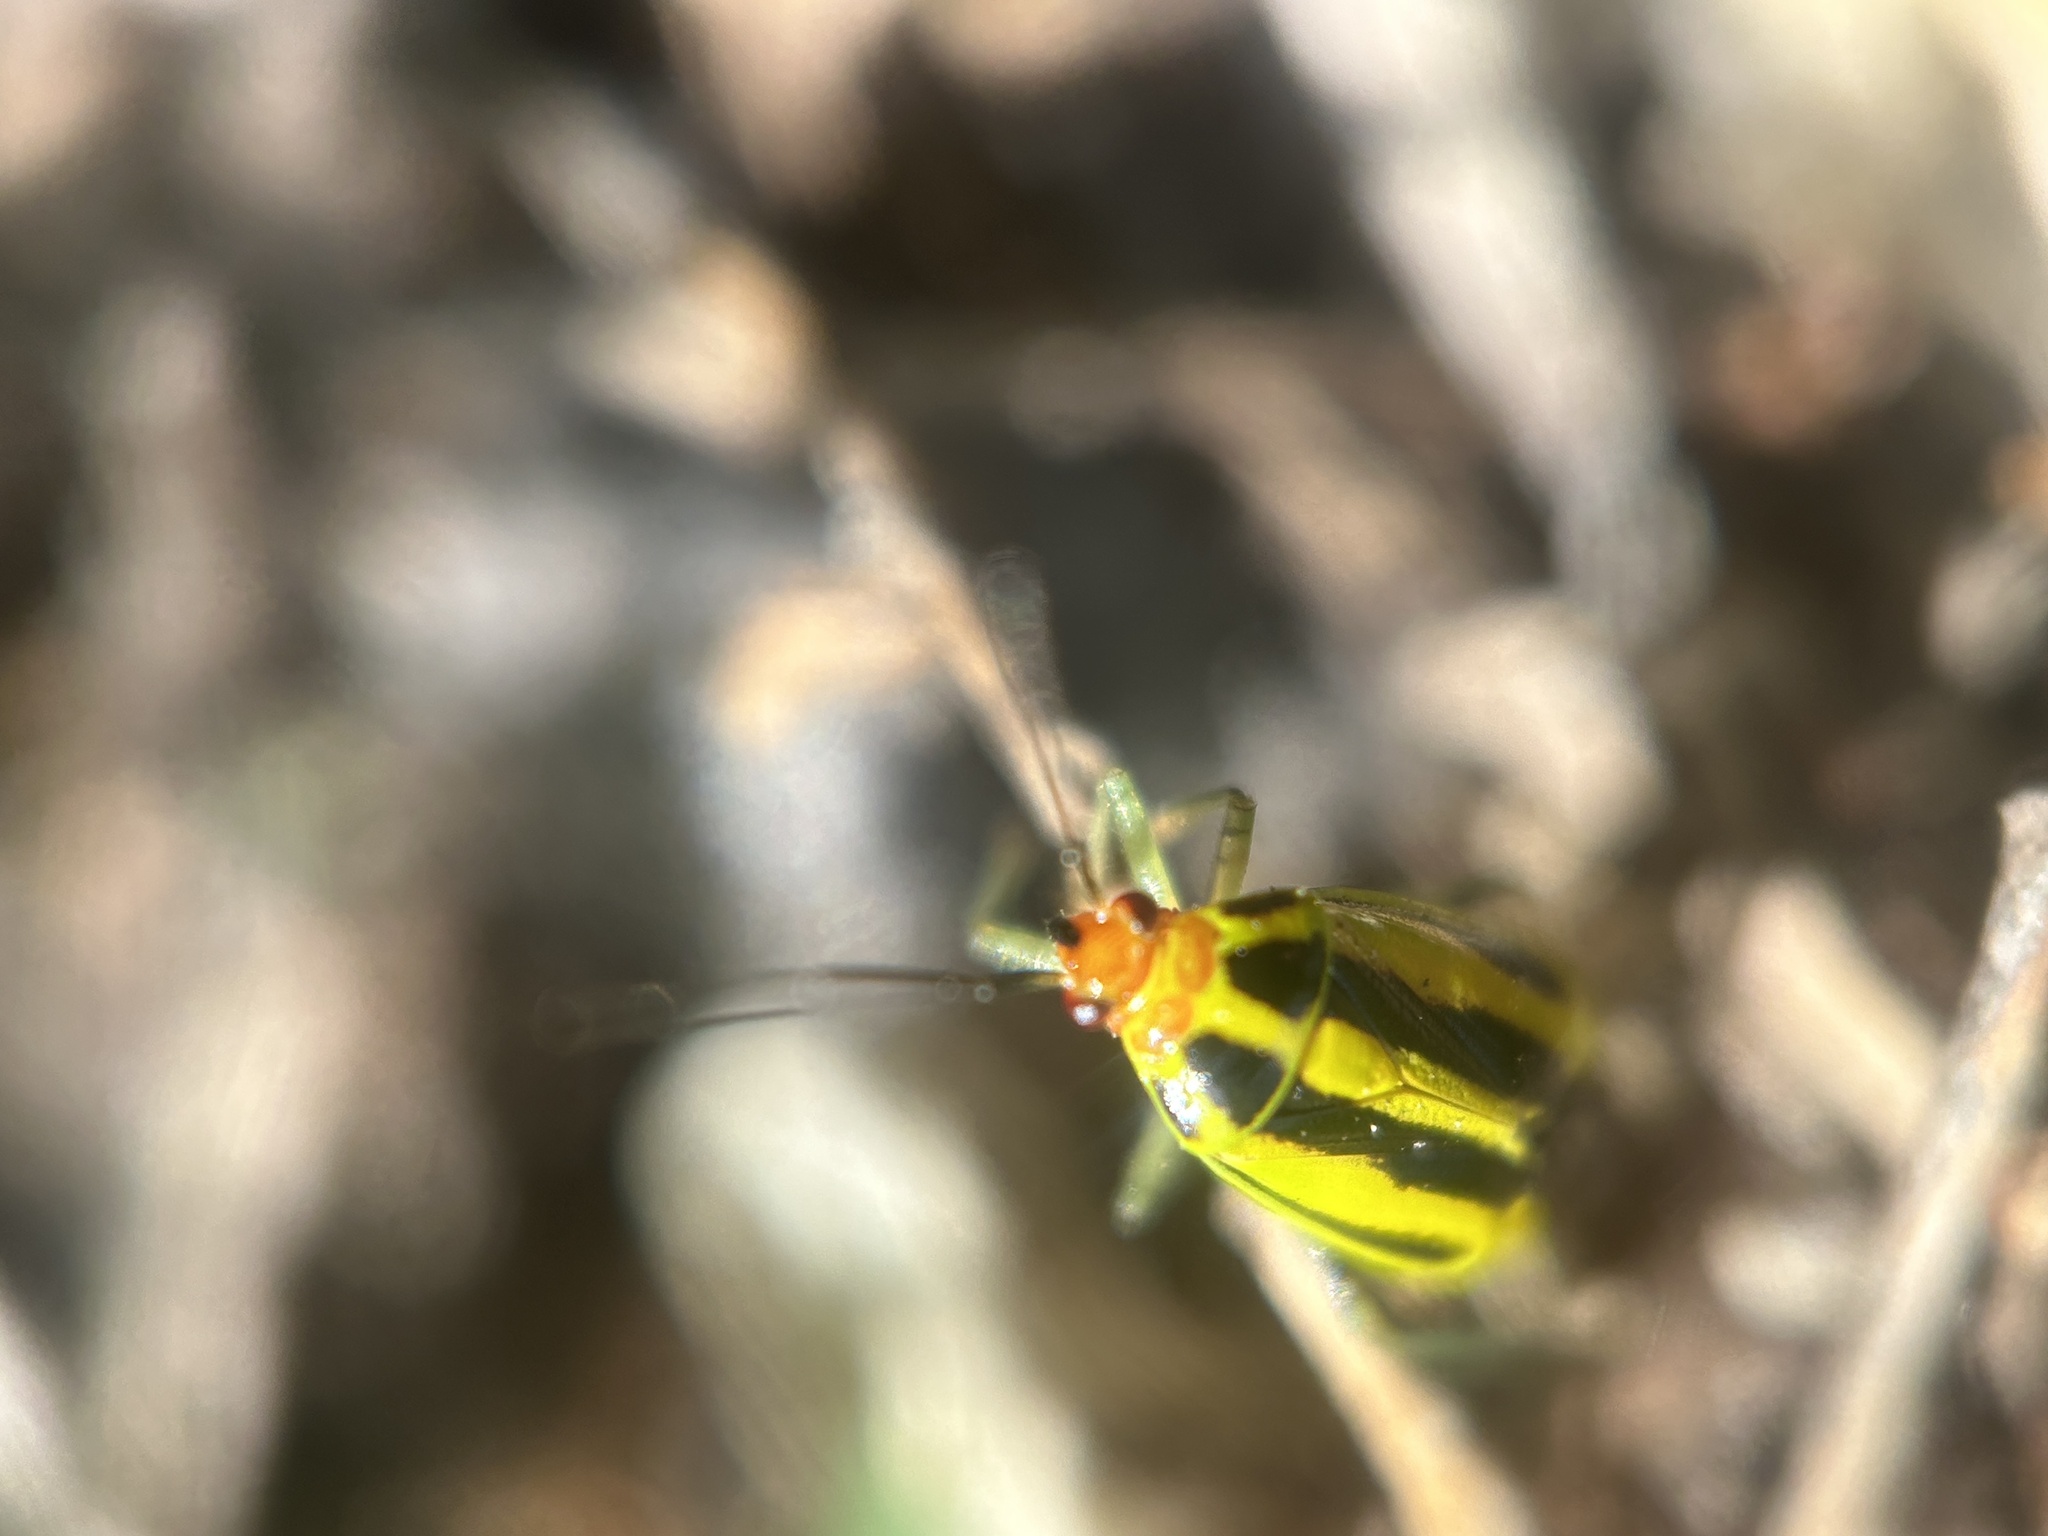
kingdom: Animalia
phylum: Arthropoda
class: Insecta
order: Hemiptera
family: Miridae
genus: Poecilocapsus
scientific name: Poecilocapsus lineatus
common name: Four-lined plant bug
